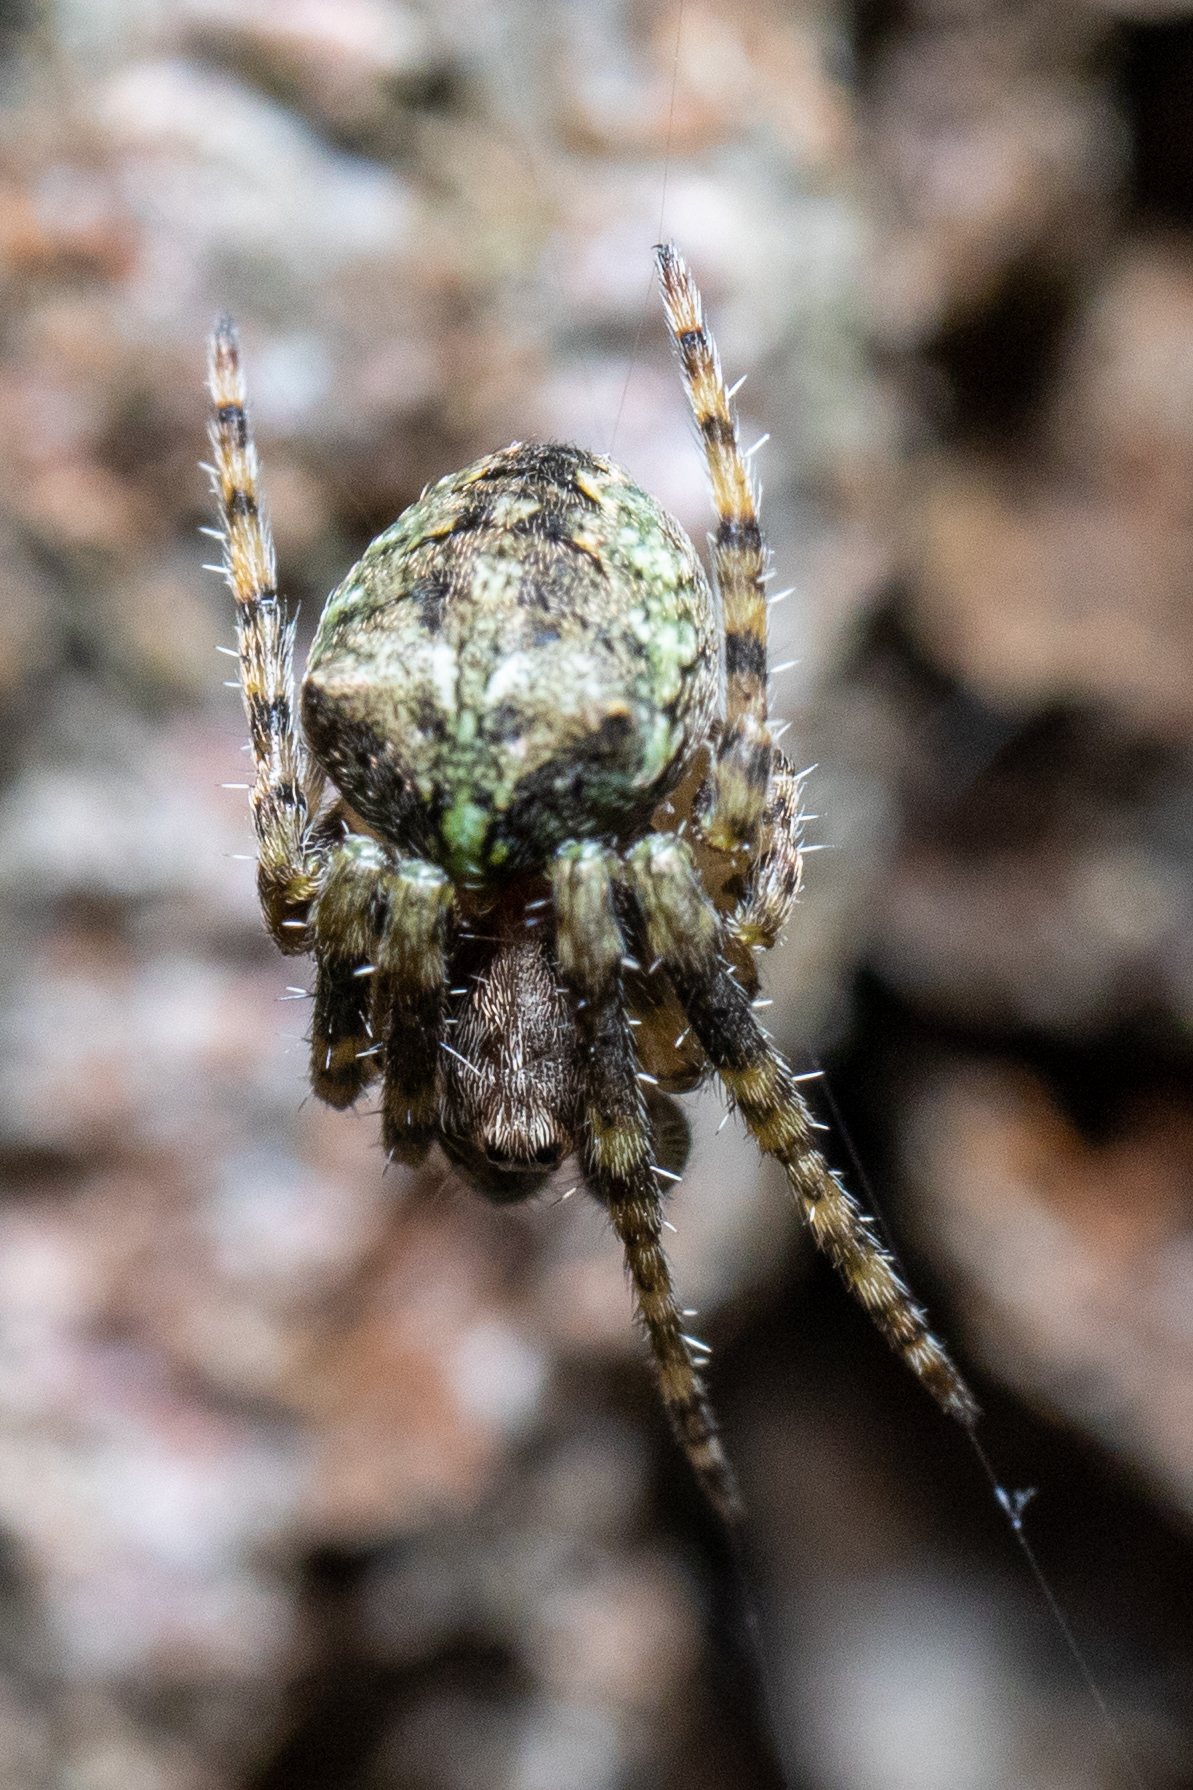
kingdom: Animalia
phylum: Arthropoda
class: Arachnida
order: Araneae
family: Araneidae
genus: Gibbaranea
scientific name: Gibbaranea gibbosa
